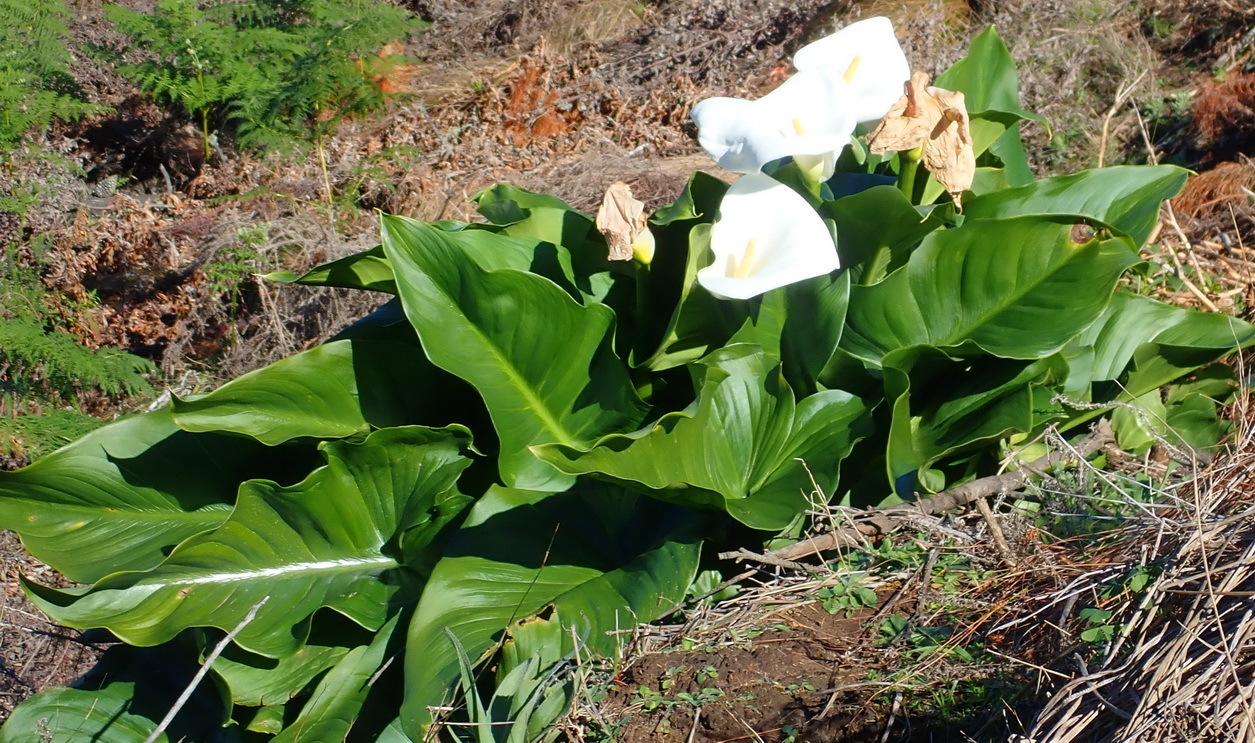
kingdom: Plantae
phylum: Tracheophyta
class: Liliopsida
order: Alismatales
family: Araceae
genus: Zantedeschia
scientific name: Zantedeschia aethiopica
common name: Altar-lily
